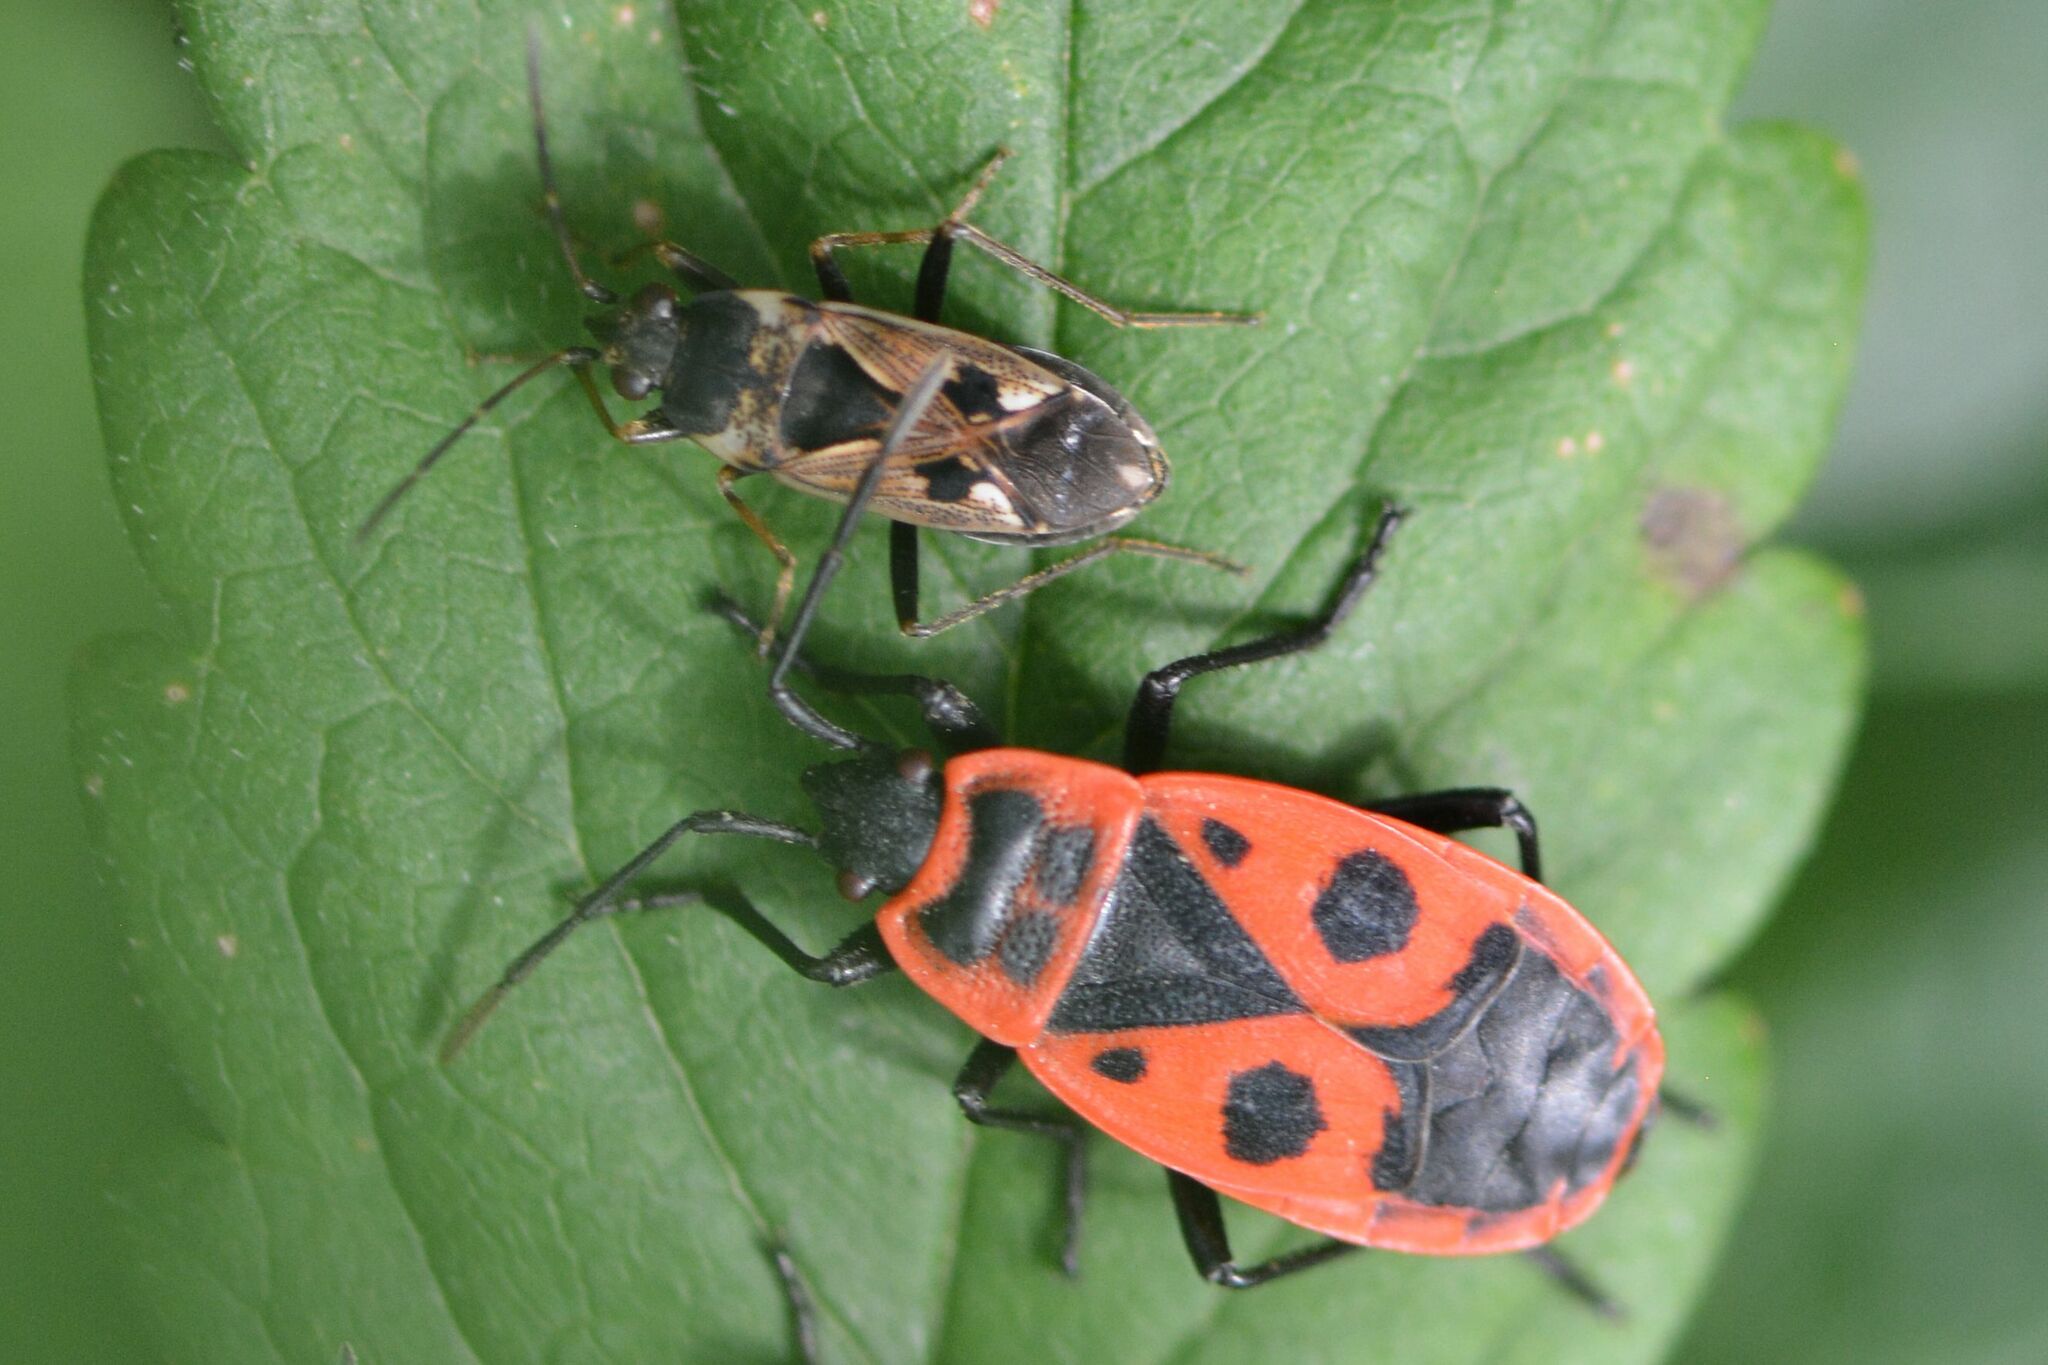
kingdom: Animalia
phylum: Arthropoda
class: Insecta
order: Hemiptera
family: Rhyparochromidae
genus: Rhyparochromus
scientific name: Rhyparochromus vulgaris
